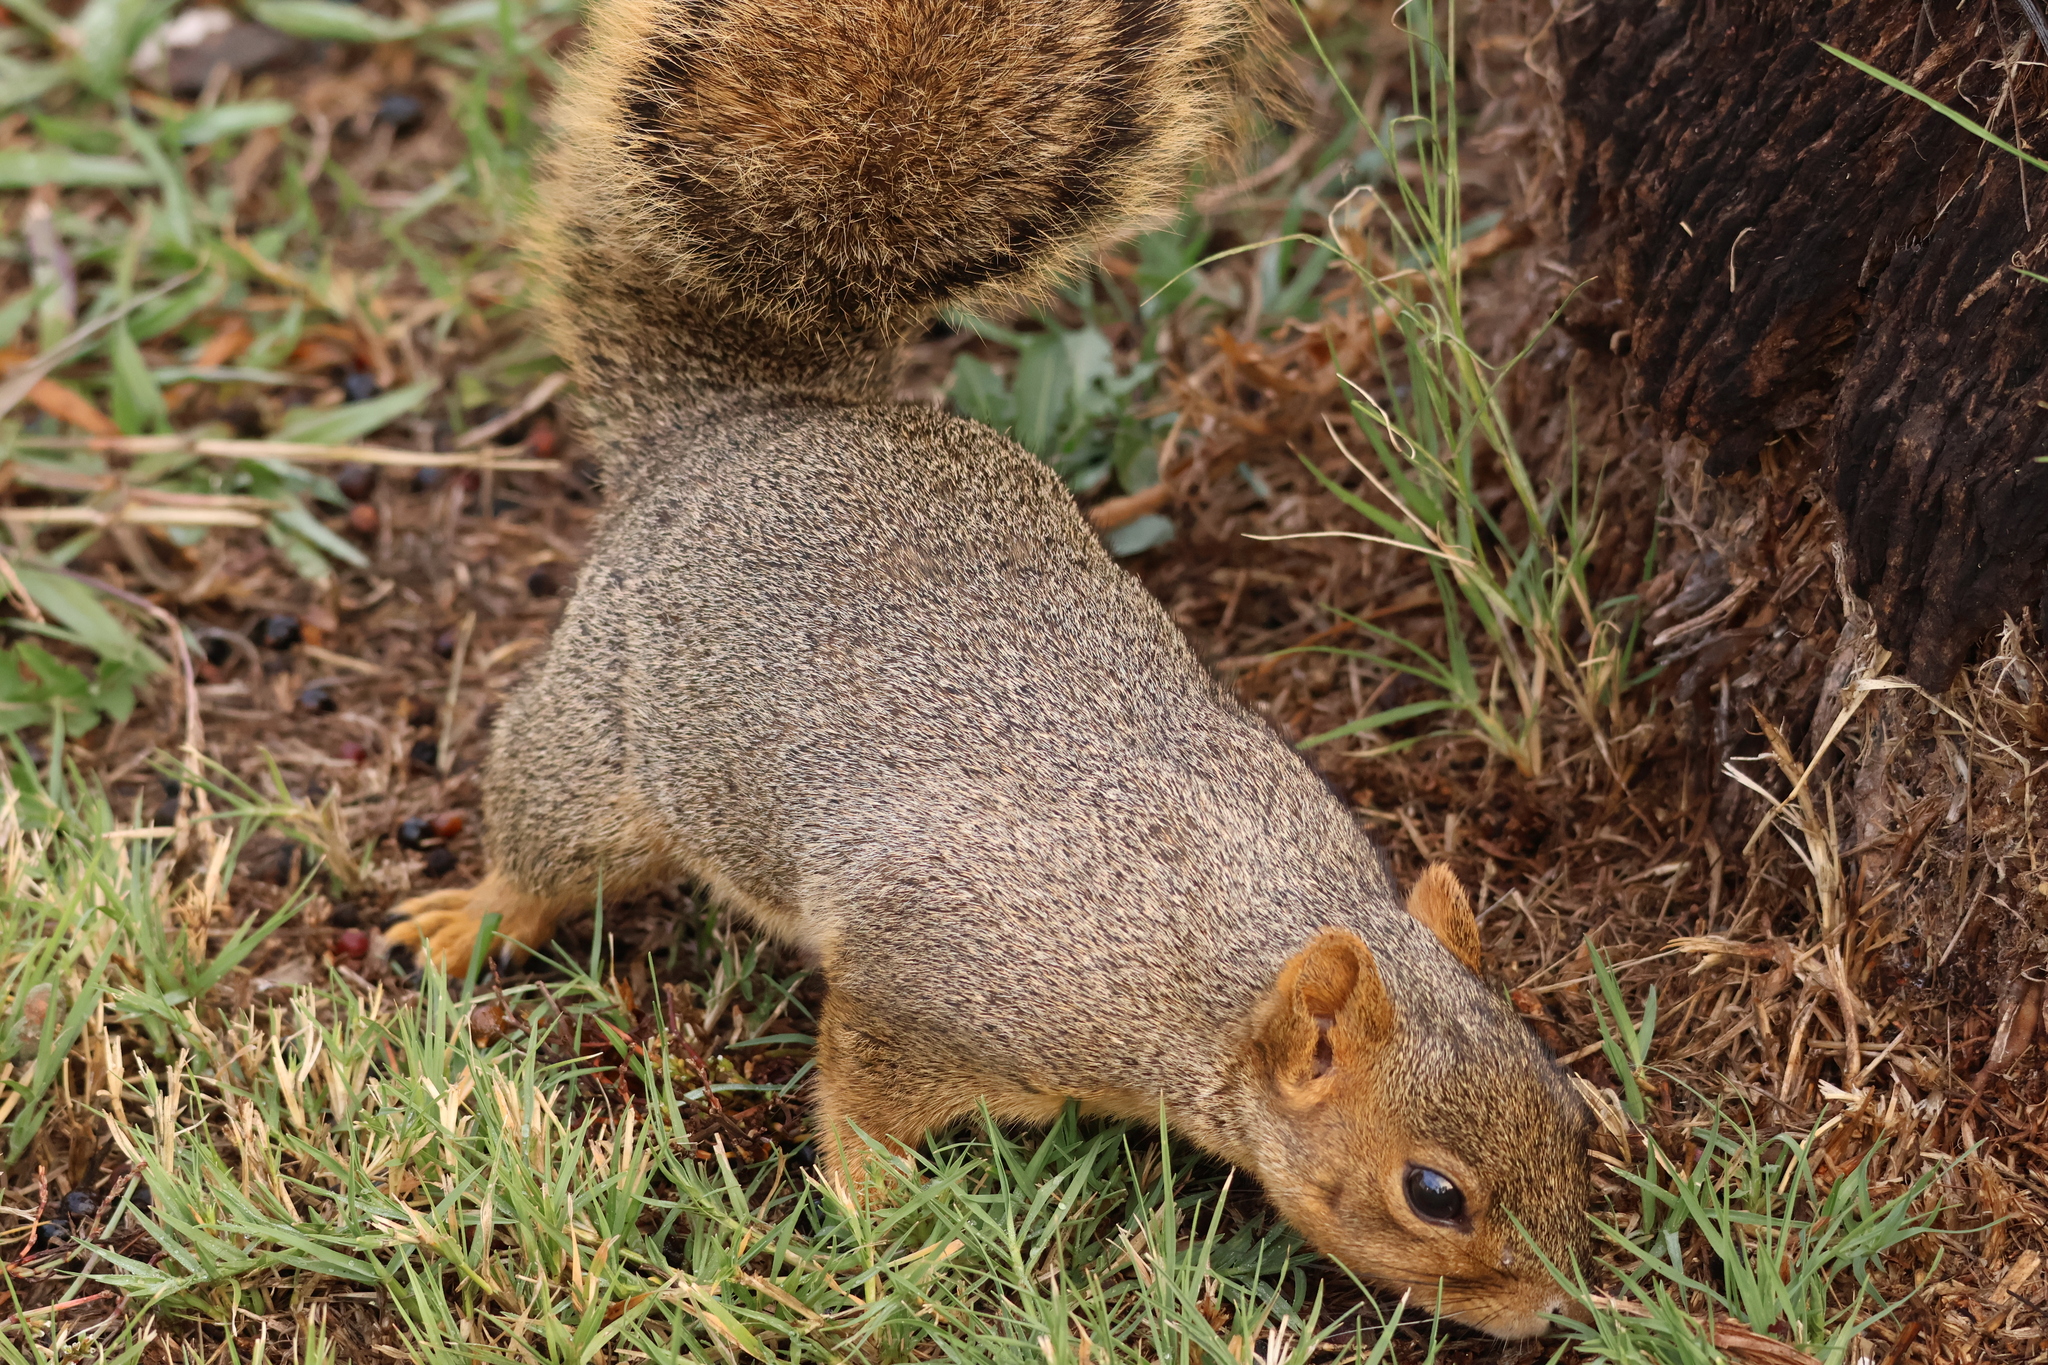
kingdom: Animalia
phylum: Chordata
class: Mammalia
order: Rodentia
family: Sciuridae
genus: Sciurus
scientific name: Sciurus niger
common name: Fox squirrel
